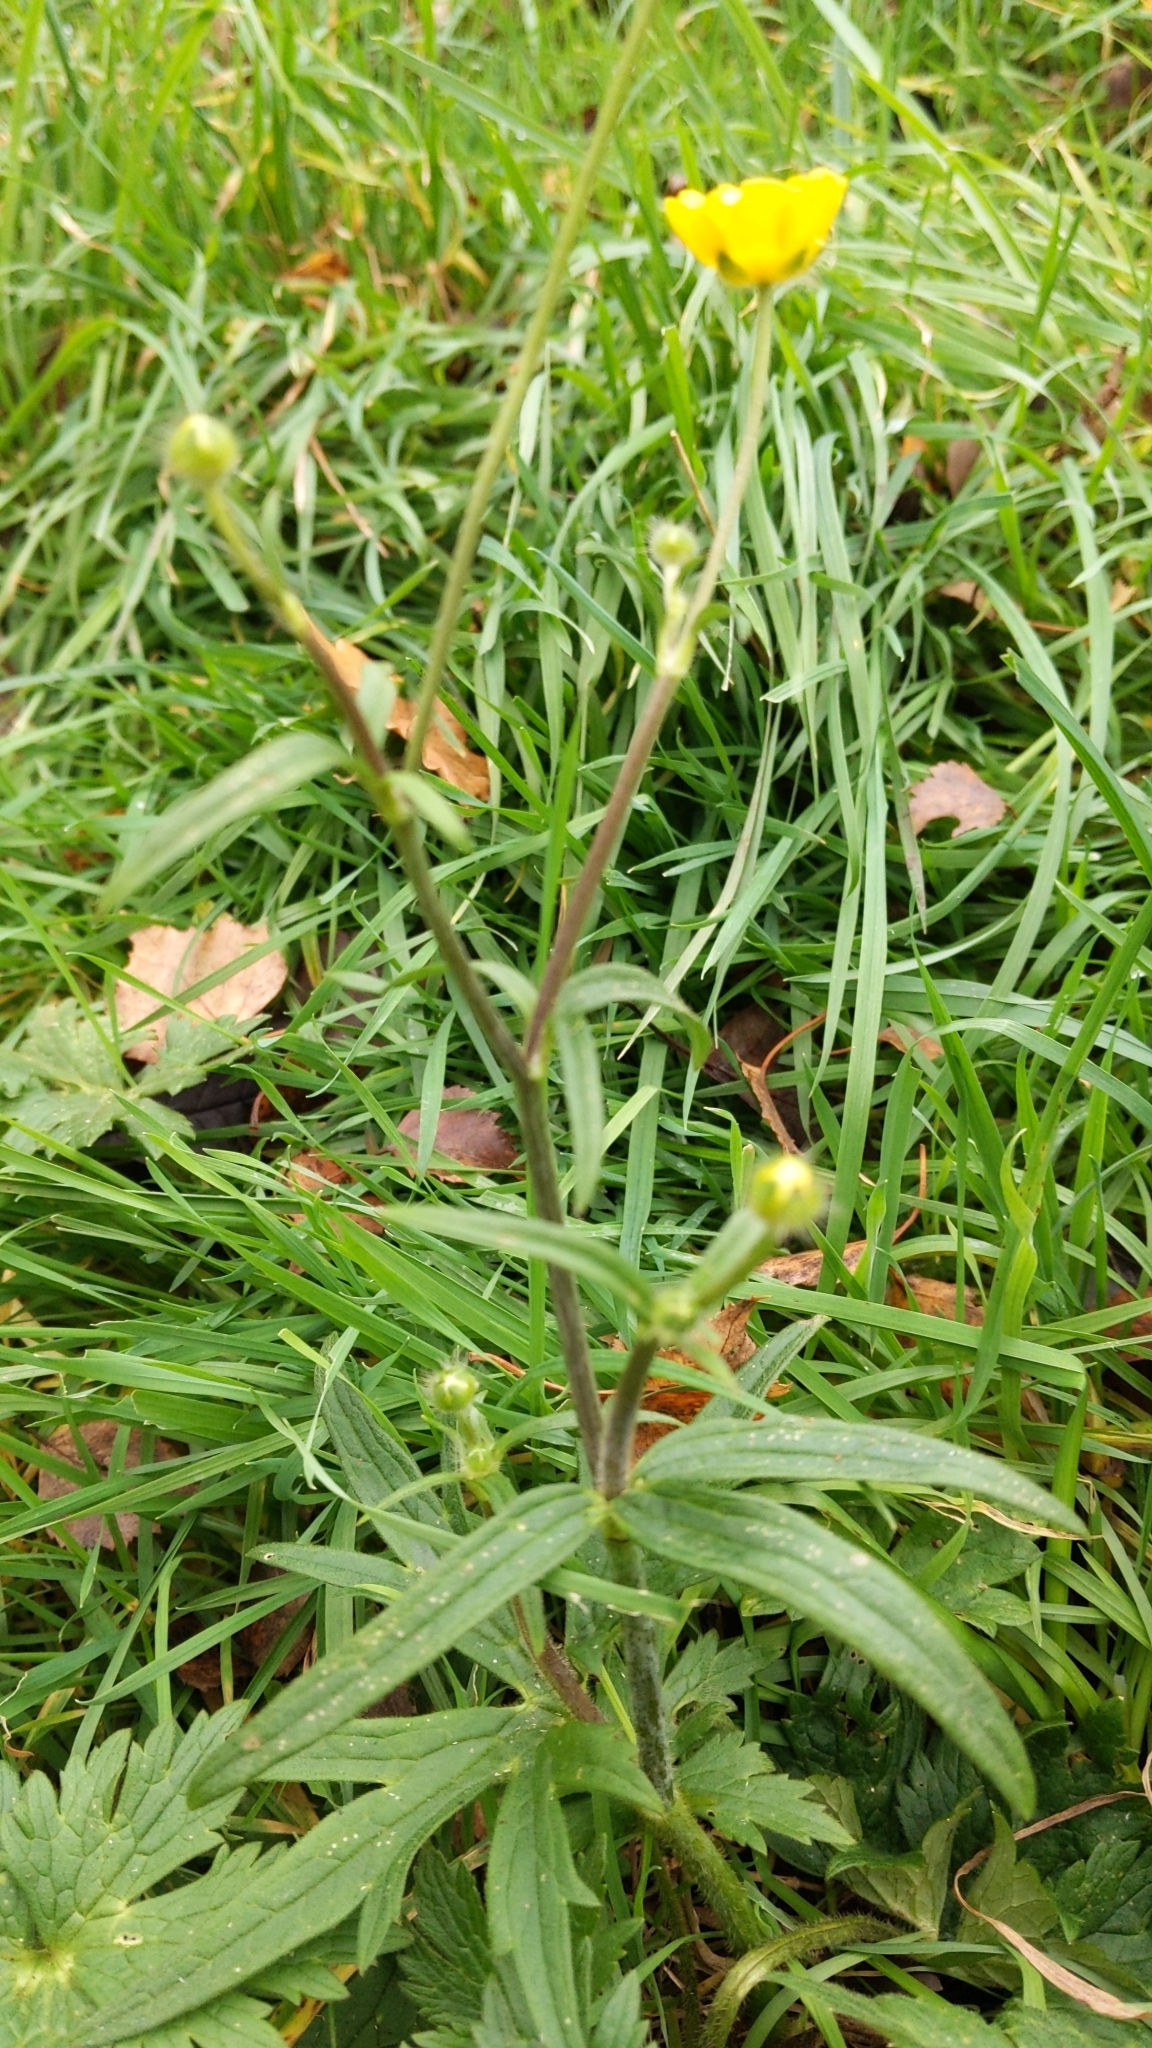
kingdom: Plantae
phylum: Tracheophyta
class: Magnoliopsida
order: Ranunculales
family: Ranunculaceae
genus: Ranunculus
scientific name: Ranunculus acris
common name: Meadow buttercup
